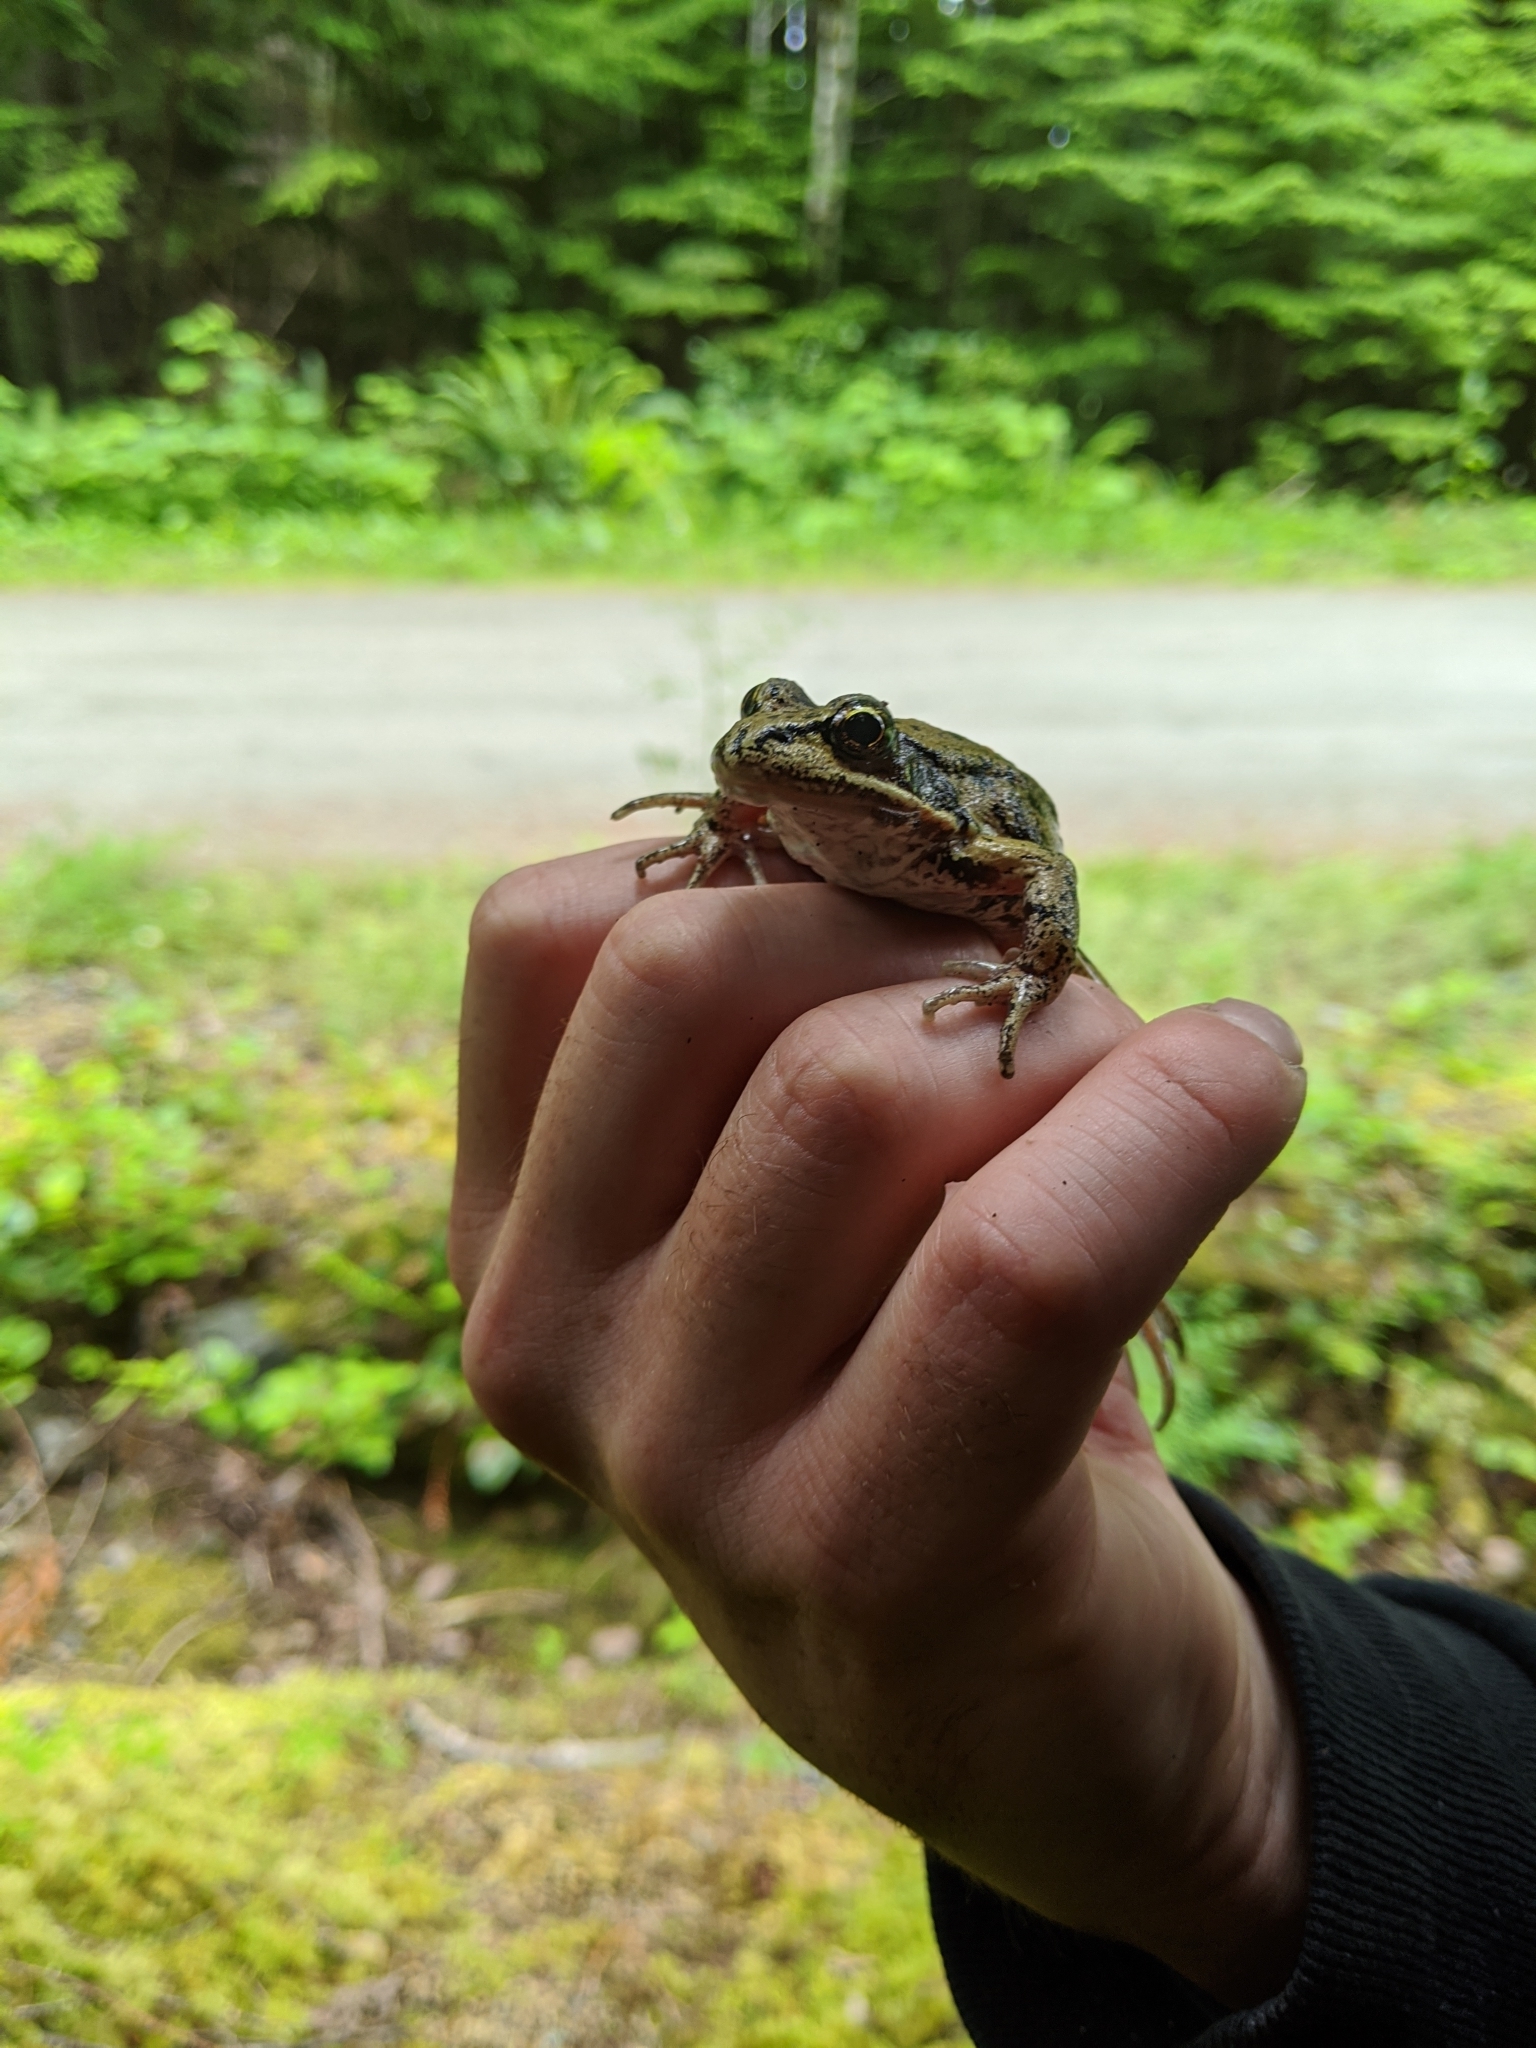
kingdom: Animalia
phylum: Chordata
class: Amphibia
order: Anura
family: Ranidae
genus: Rana
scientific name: Rana aurora
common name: Red-legged frog
